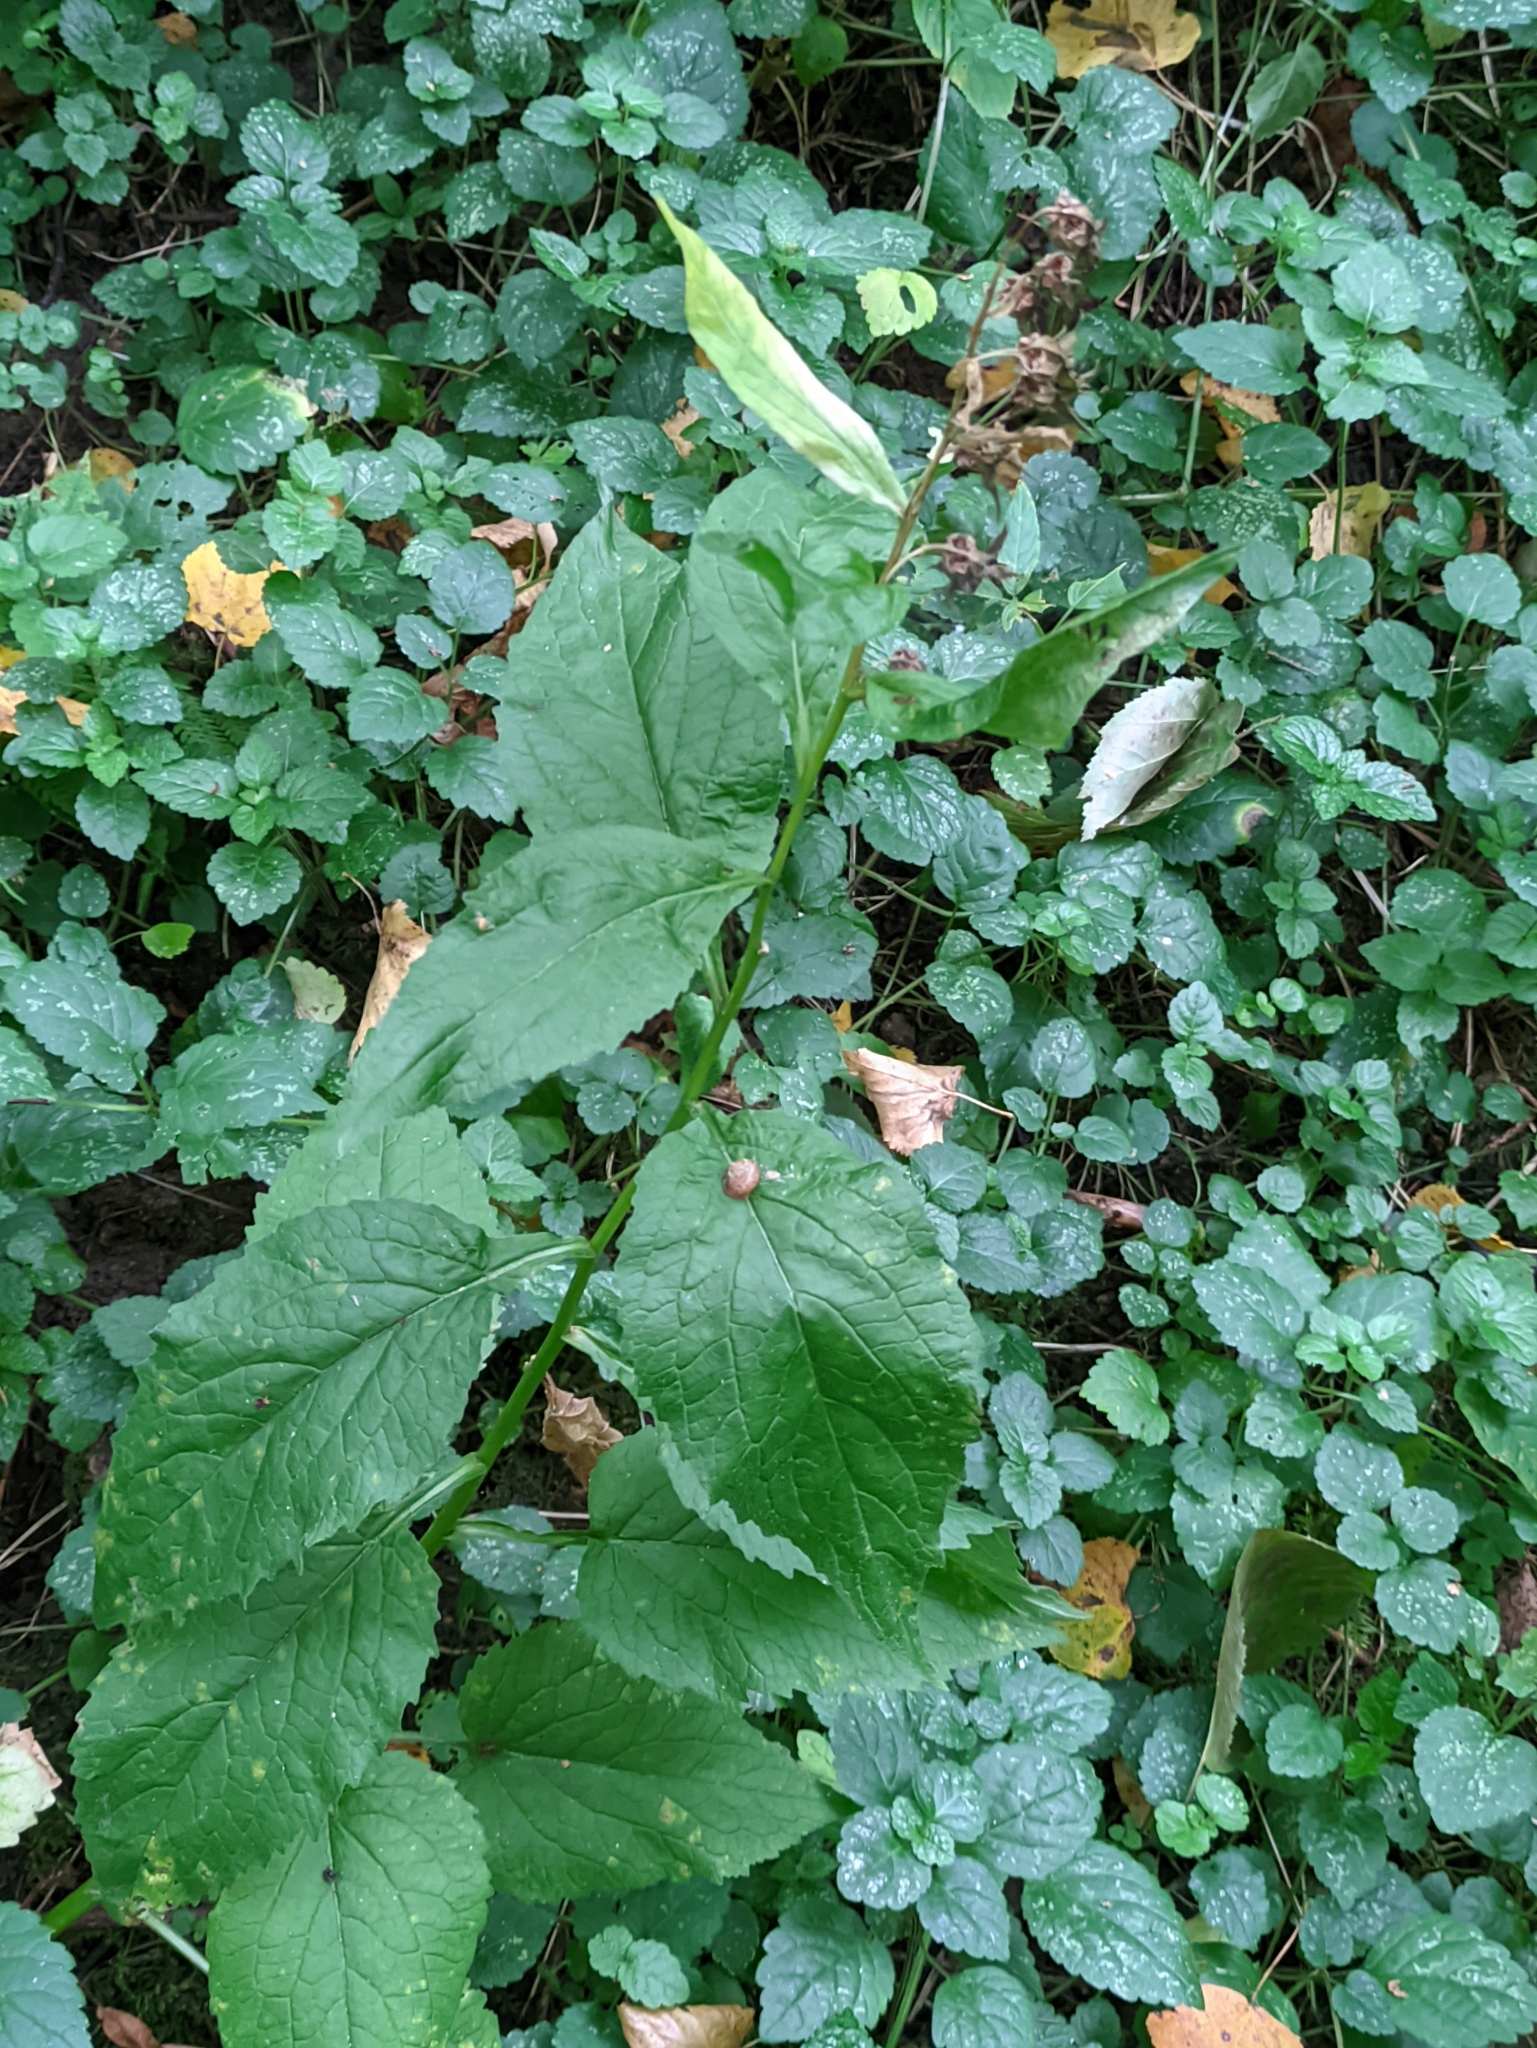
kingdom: Plantae
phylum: Tracheophyta
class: Magnoliopsida
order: Asterales
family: Campanulaceae
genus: Campanula
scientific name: Campanula latifolia
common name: Giant bellflower
